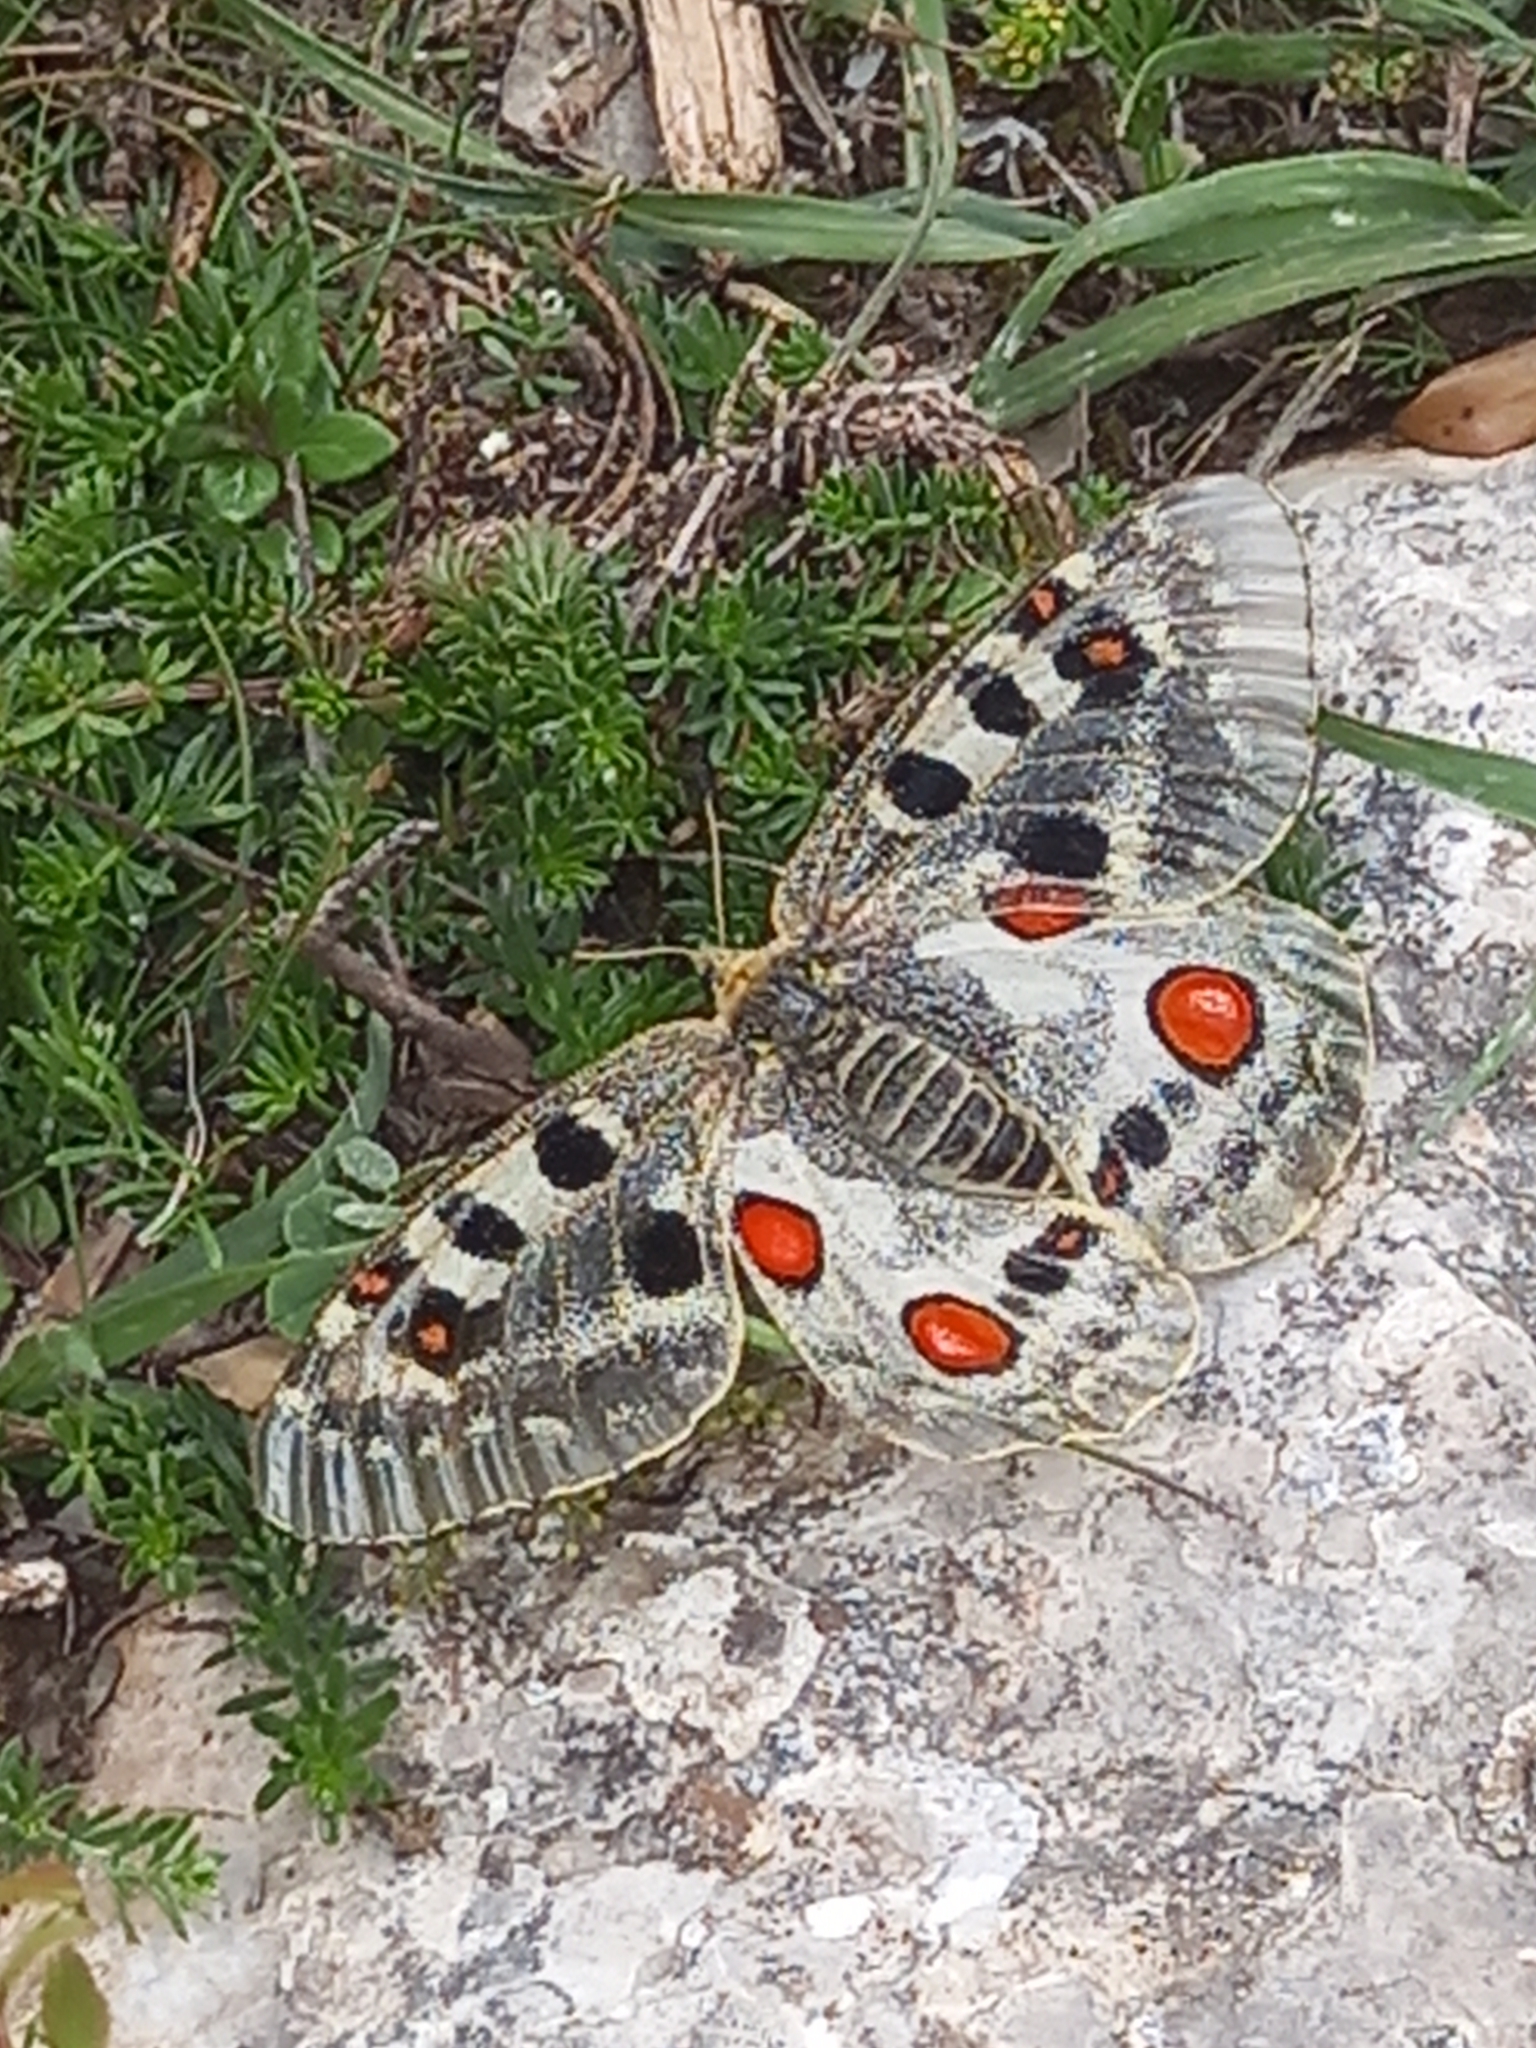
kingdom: Animalia
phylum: Arthropoda
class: Insecta
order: Lepidoptera
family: Papilionidae
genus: Parnassius
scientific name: Parnassius apollo
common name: Apollo
